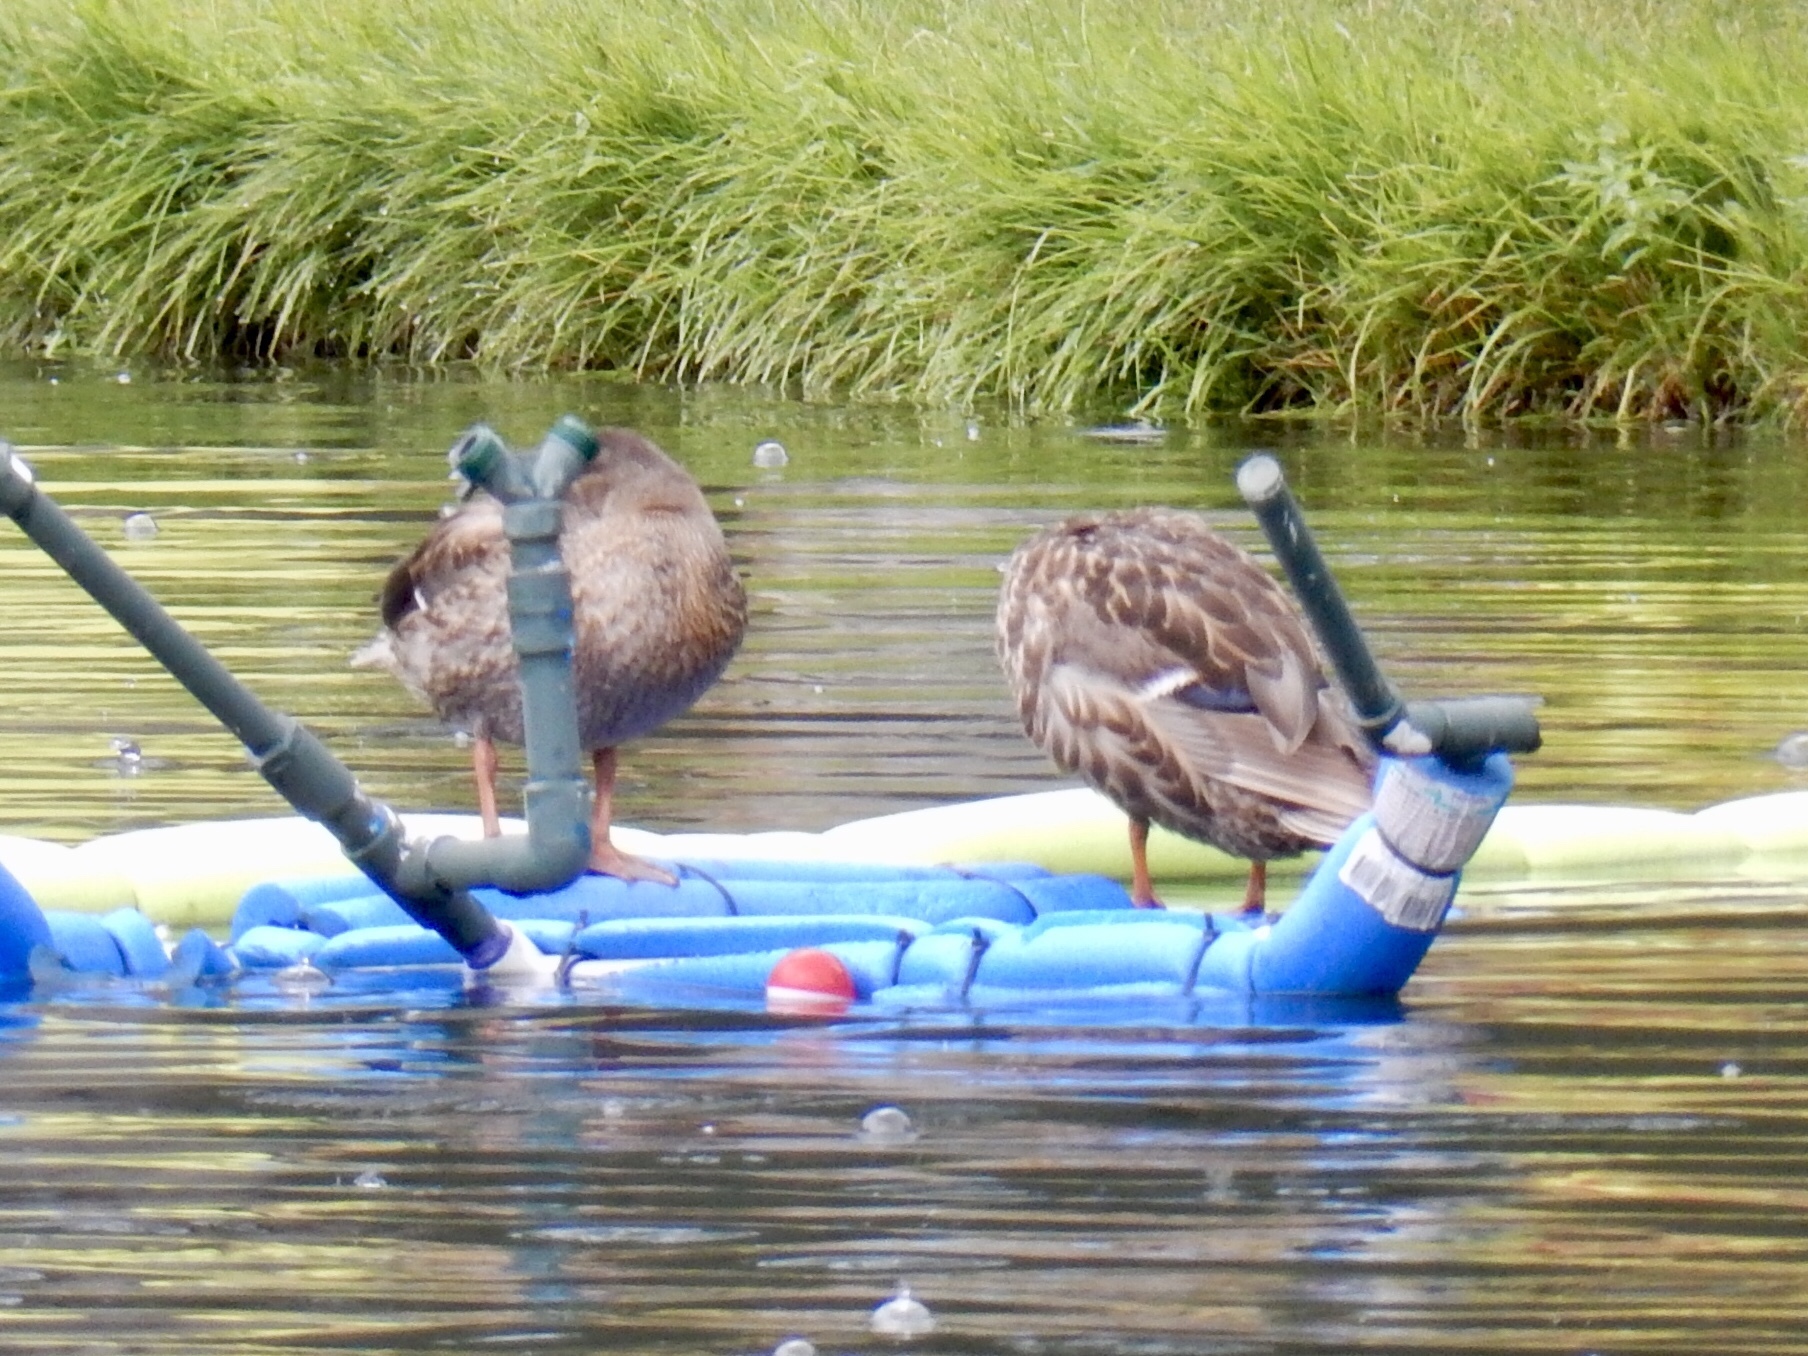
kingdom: Animalia
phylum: Chordata
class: Aves
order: Anseriformes
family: Anatidae
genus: Anas
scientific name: Anas platyrhynchos
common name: Mallard
